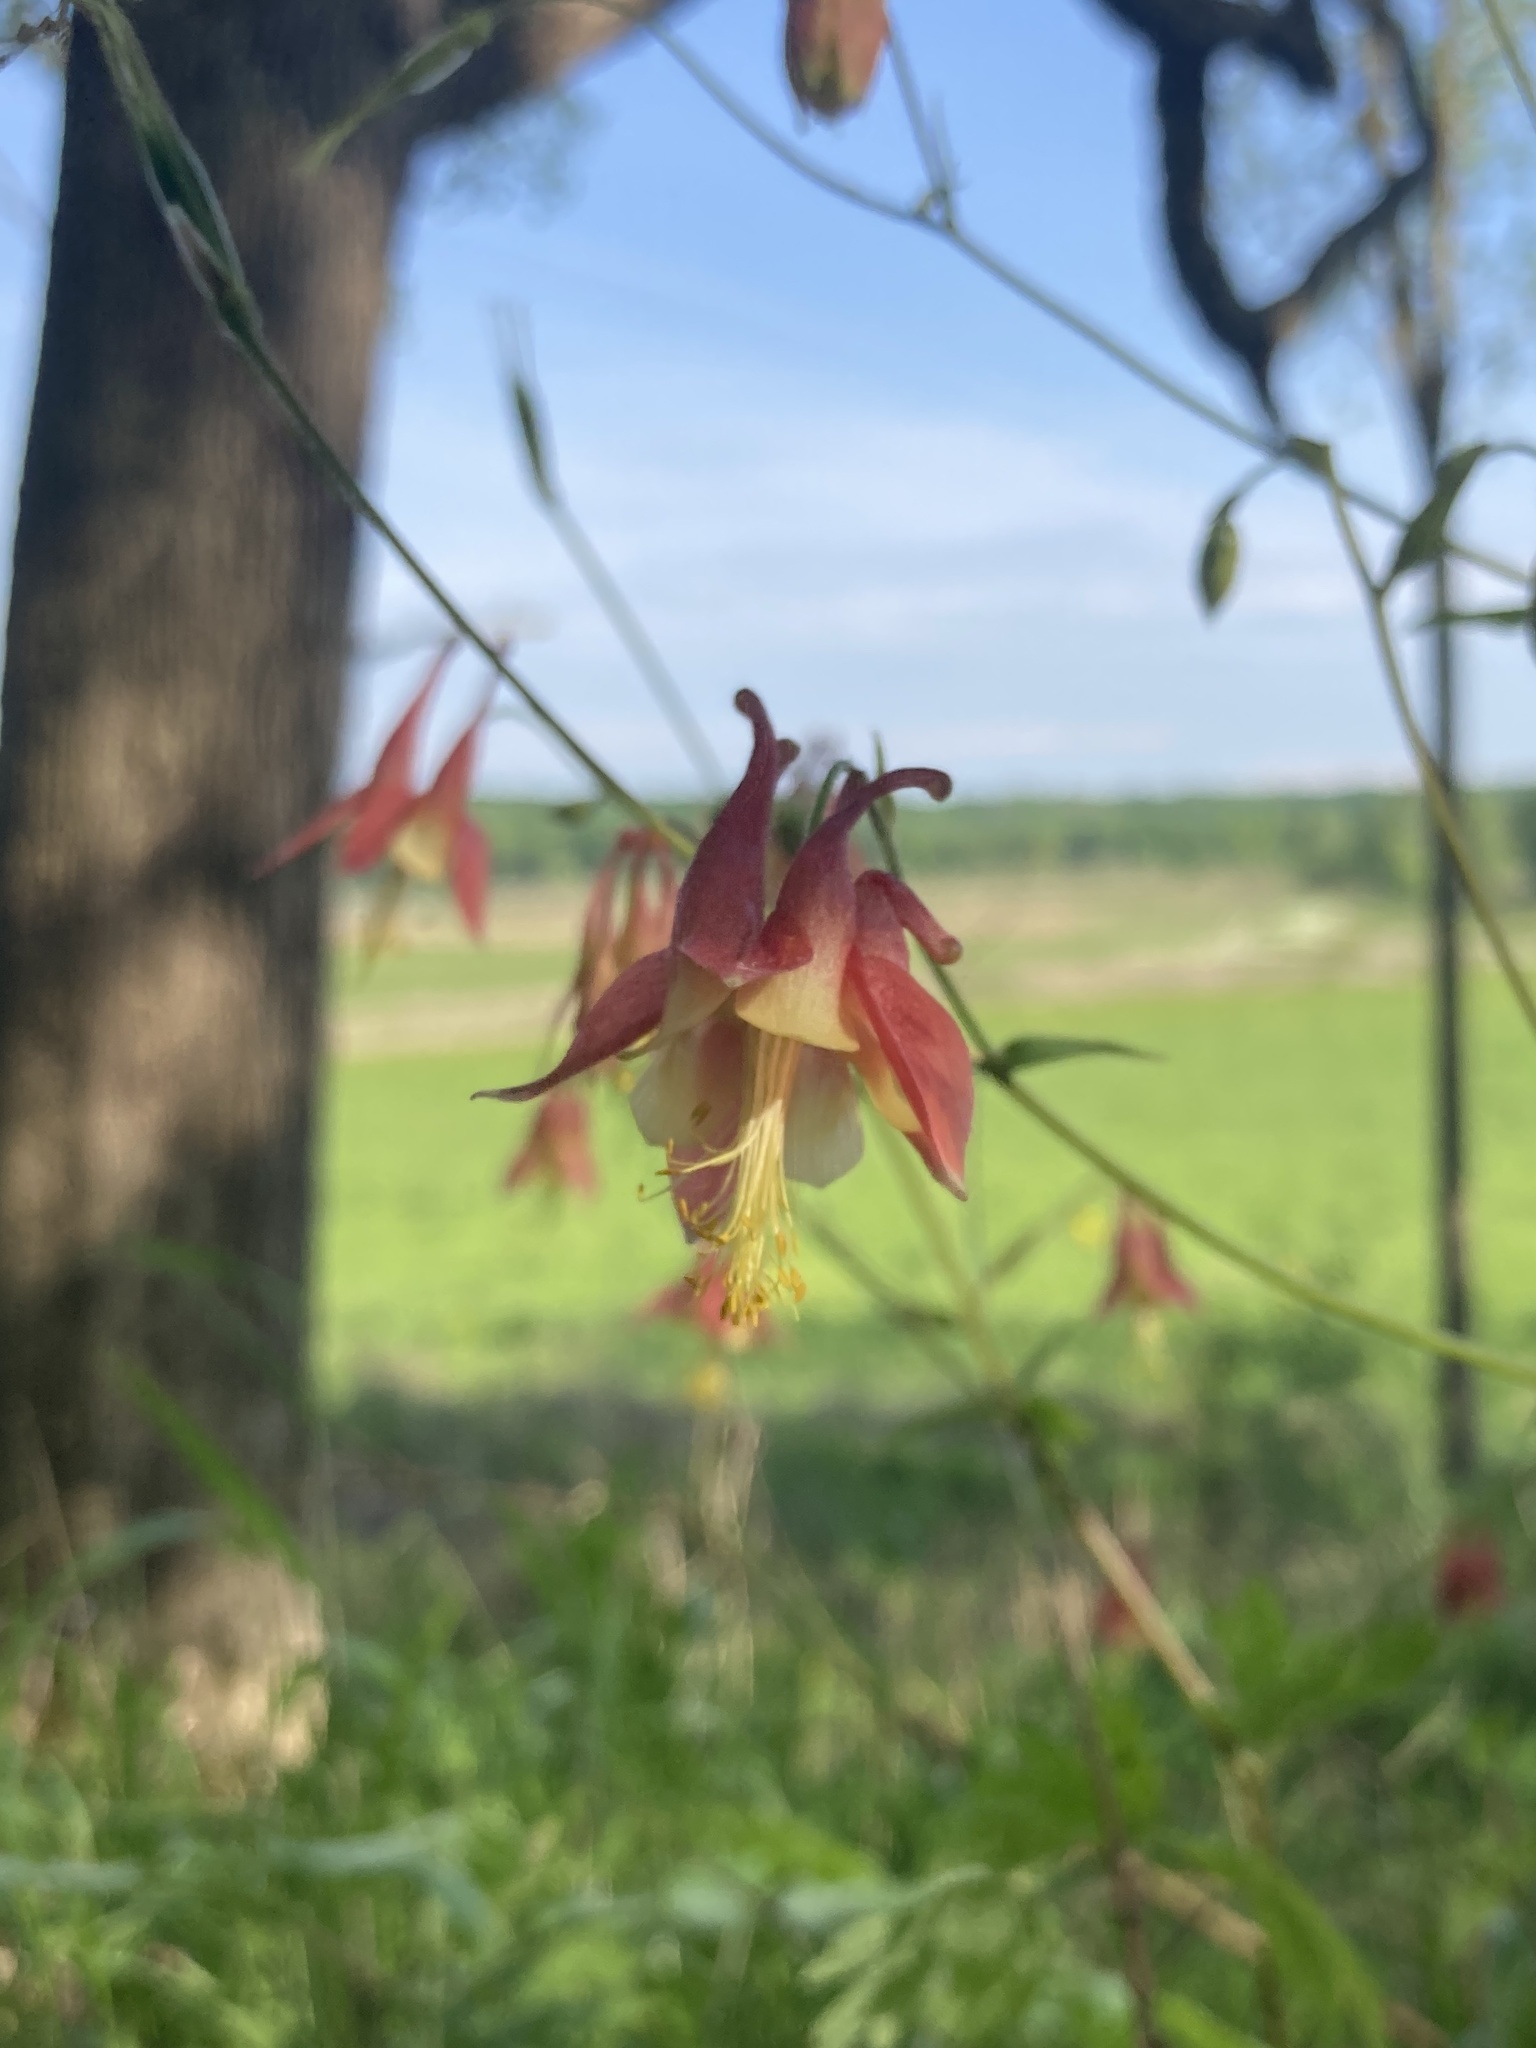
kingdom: Plantae
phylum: Tracheophyta
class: Magnoliopsida
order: Ranunculales
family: Ranunculaceae
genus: Aquilegia
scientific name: Aquilegia canadensis
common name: American columbine
